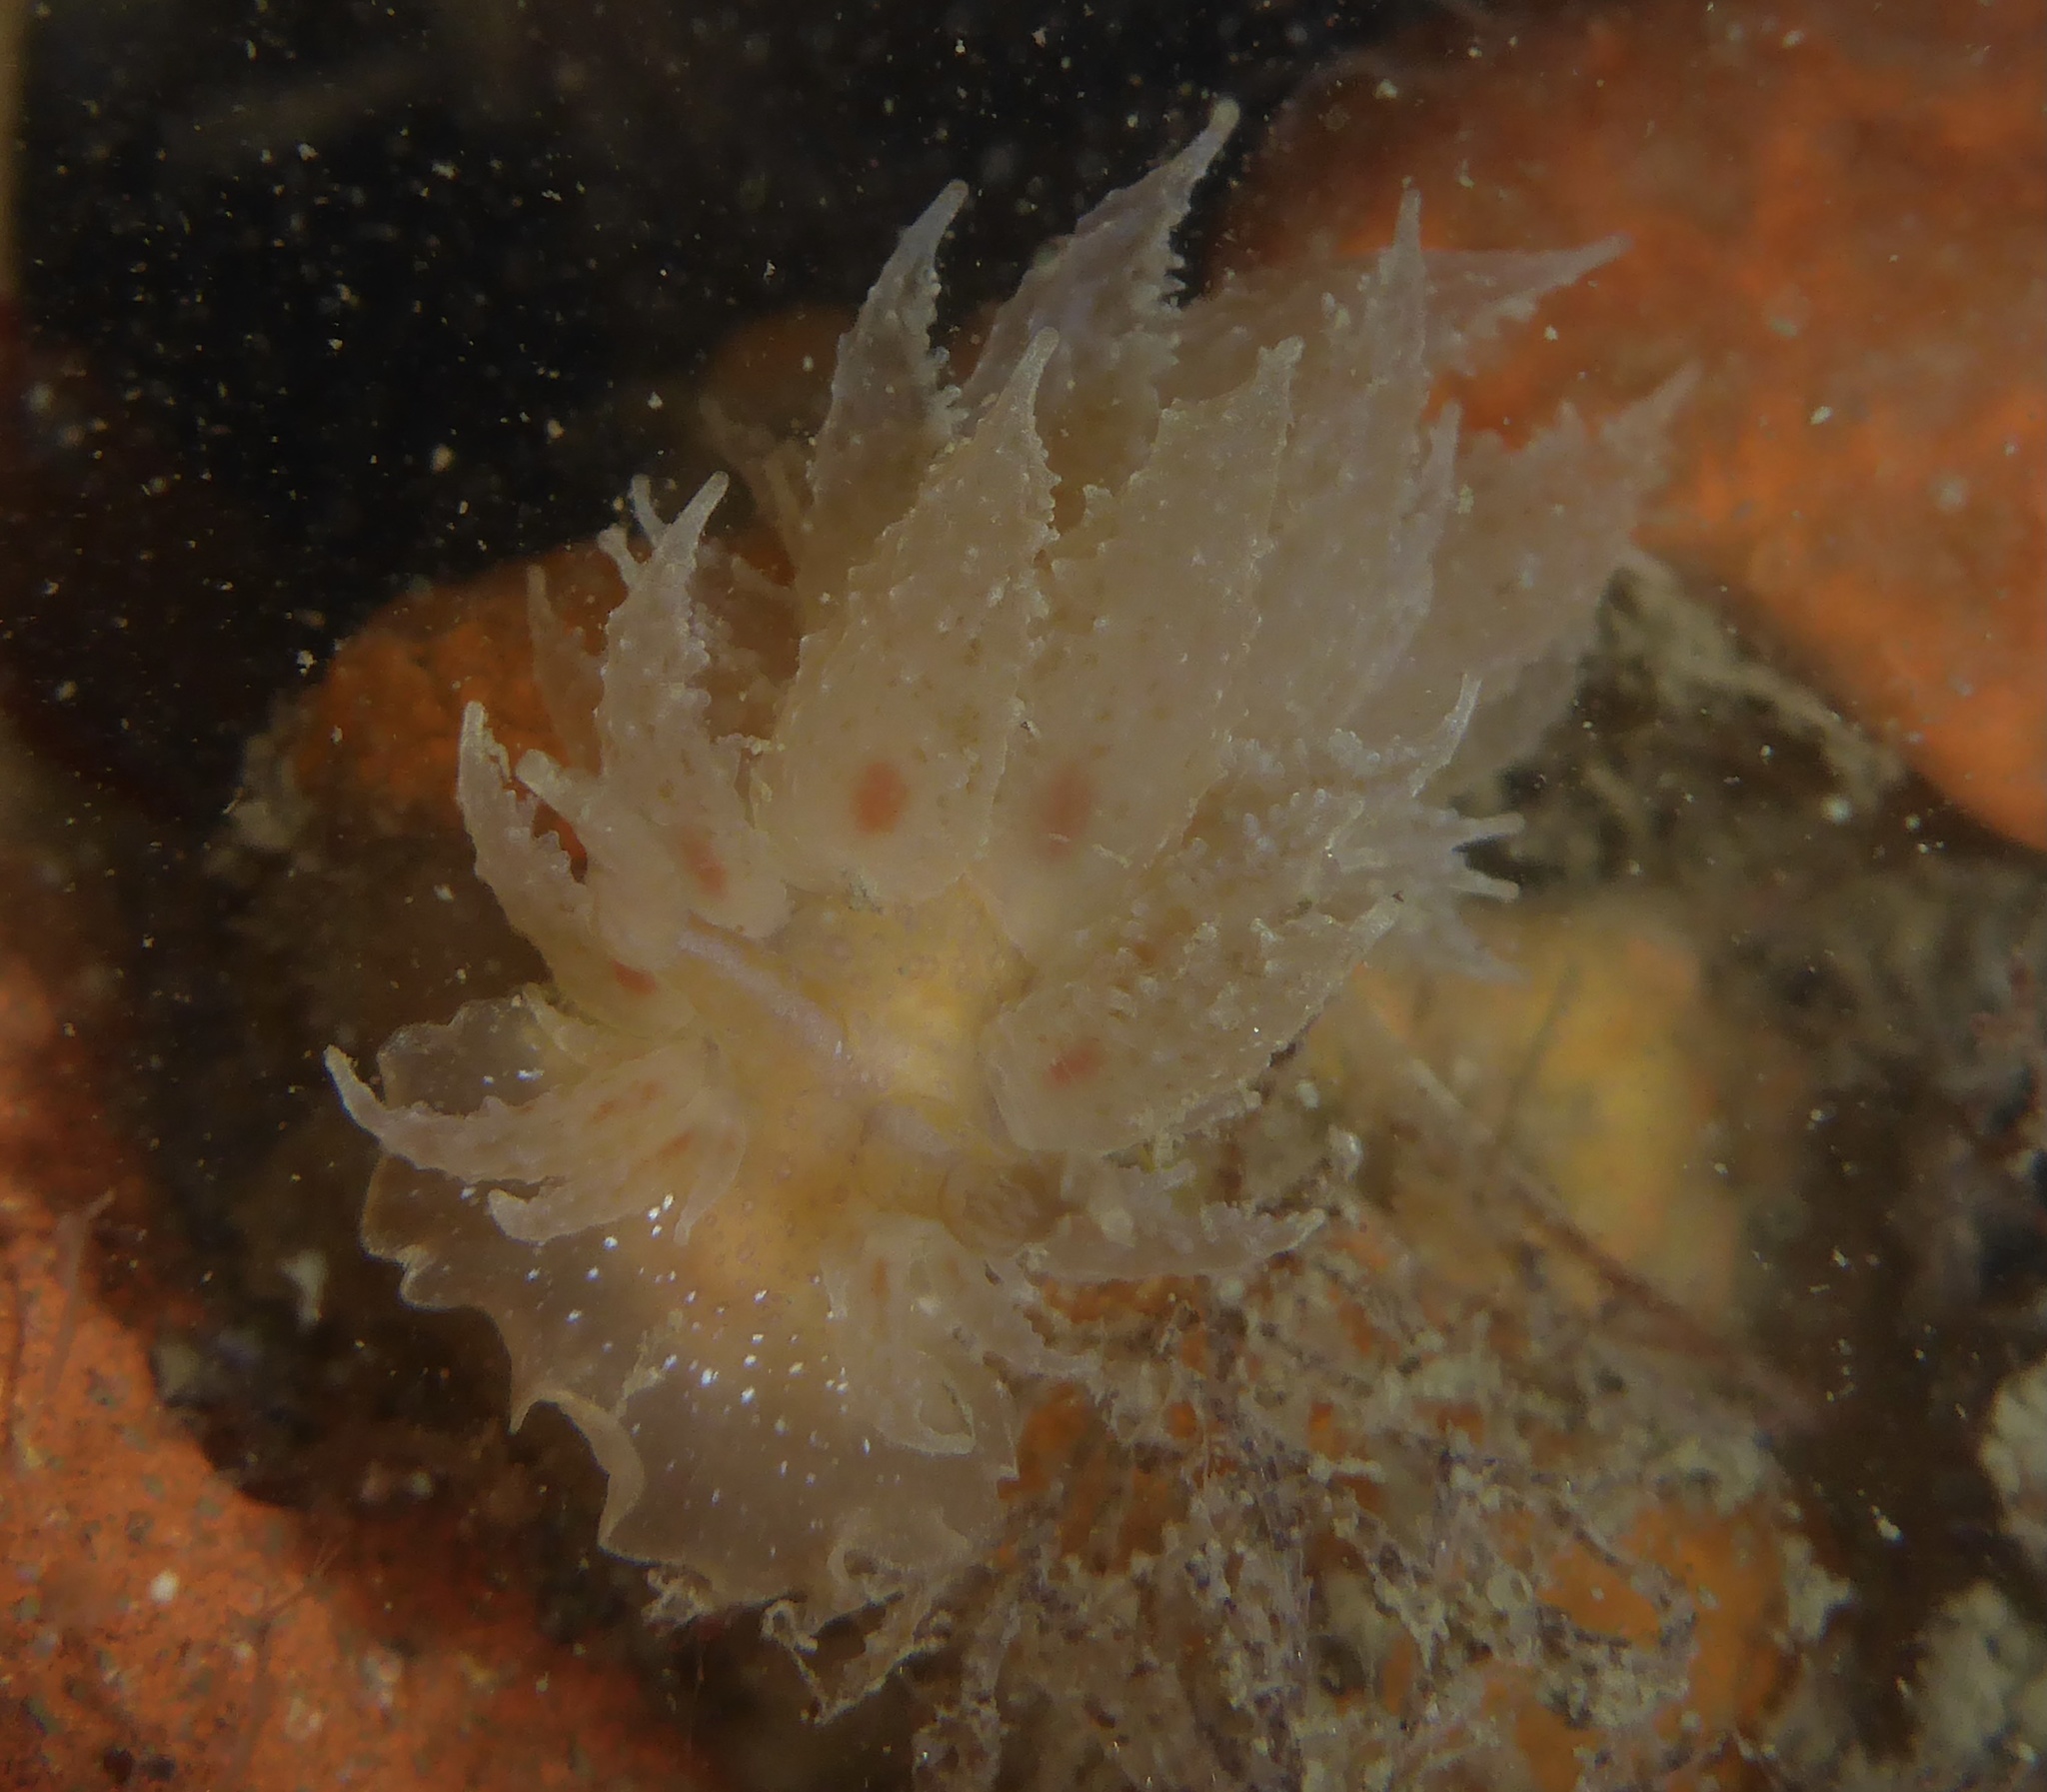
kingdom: Animalia
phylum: Mollusca
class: Gastropoda
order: Nudibranchia
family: Dironidae
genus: Dirona
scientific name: Dirona picta
